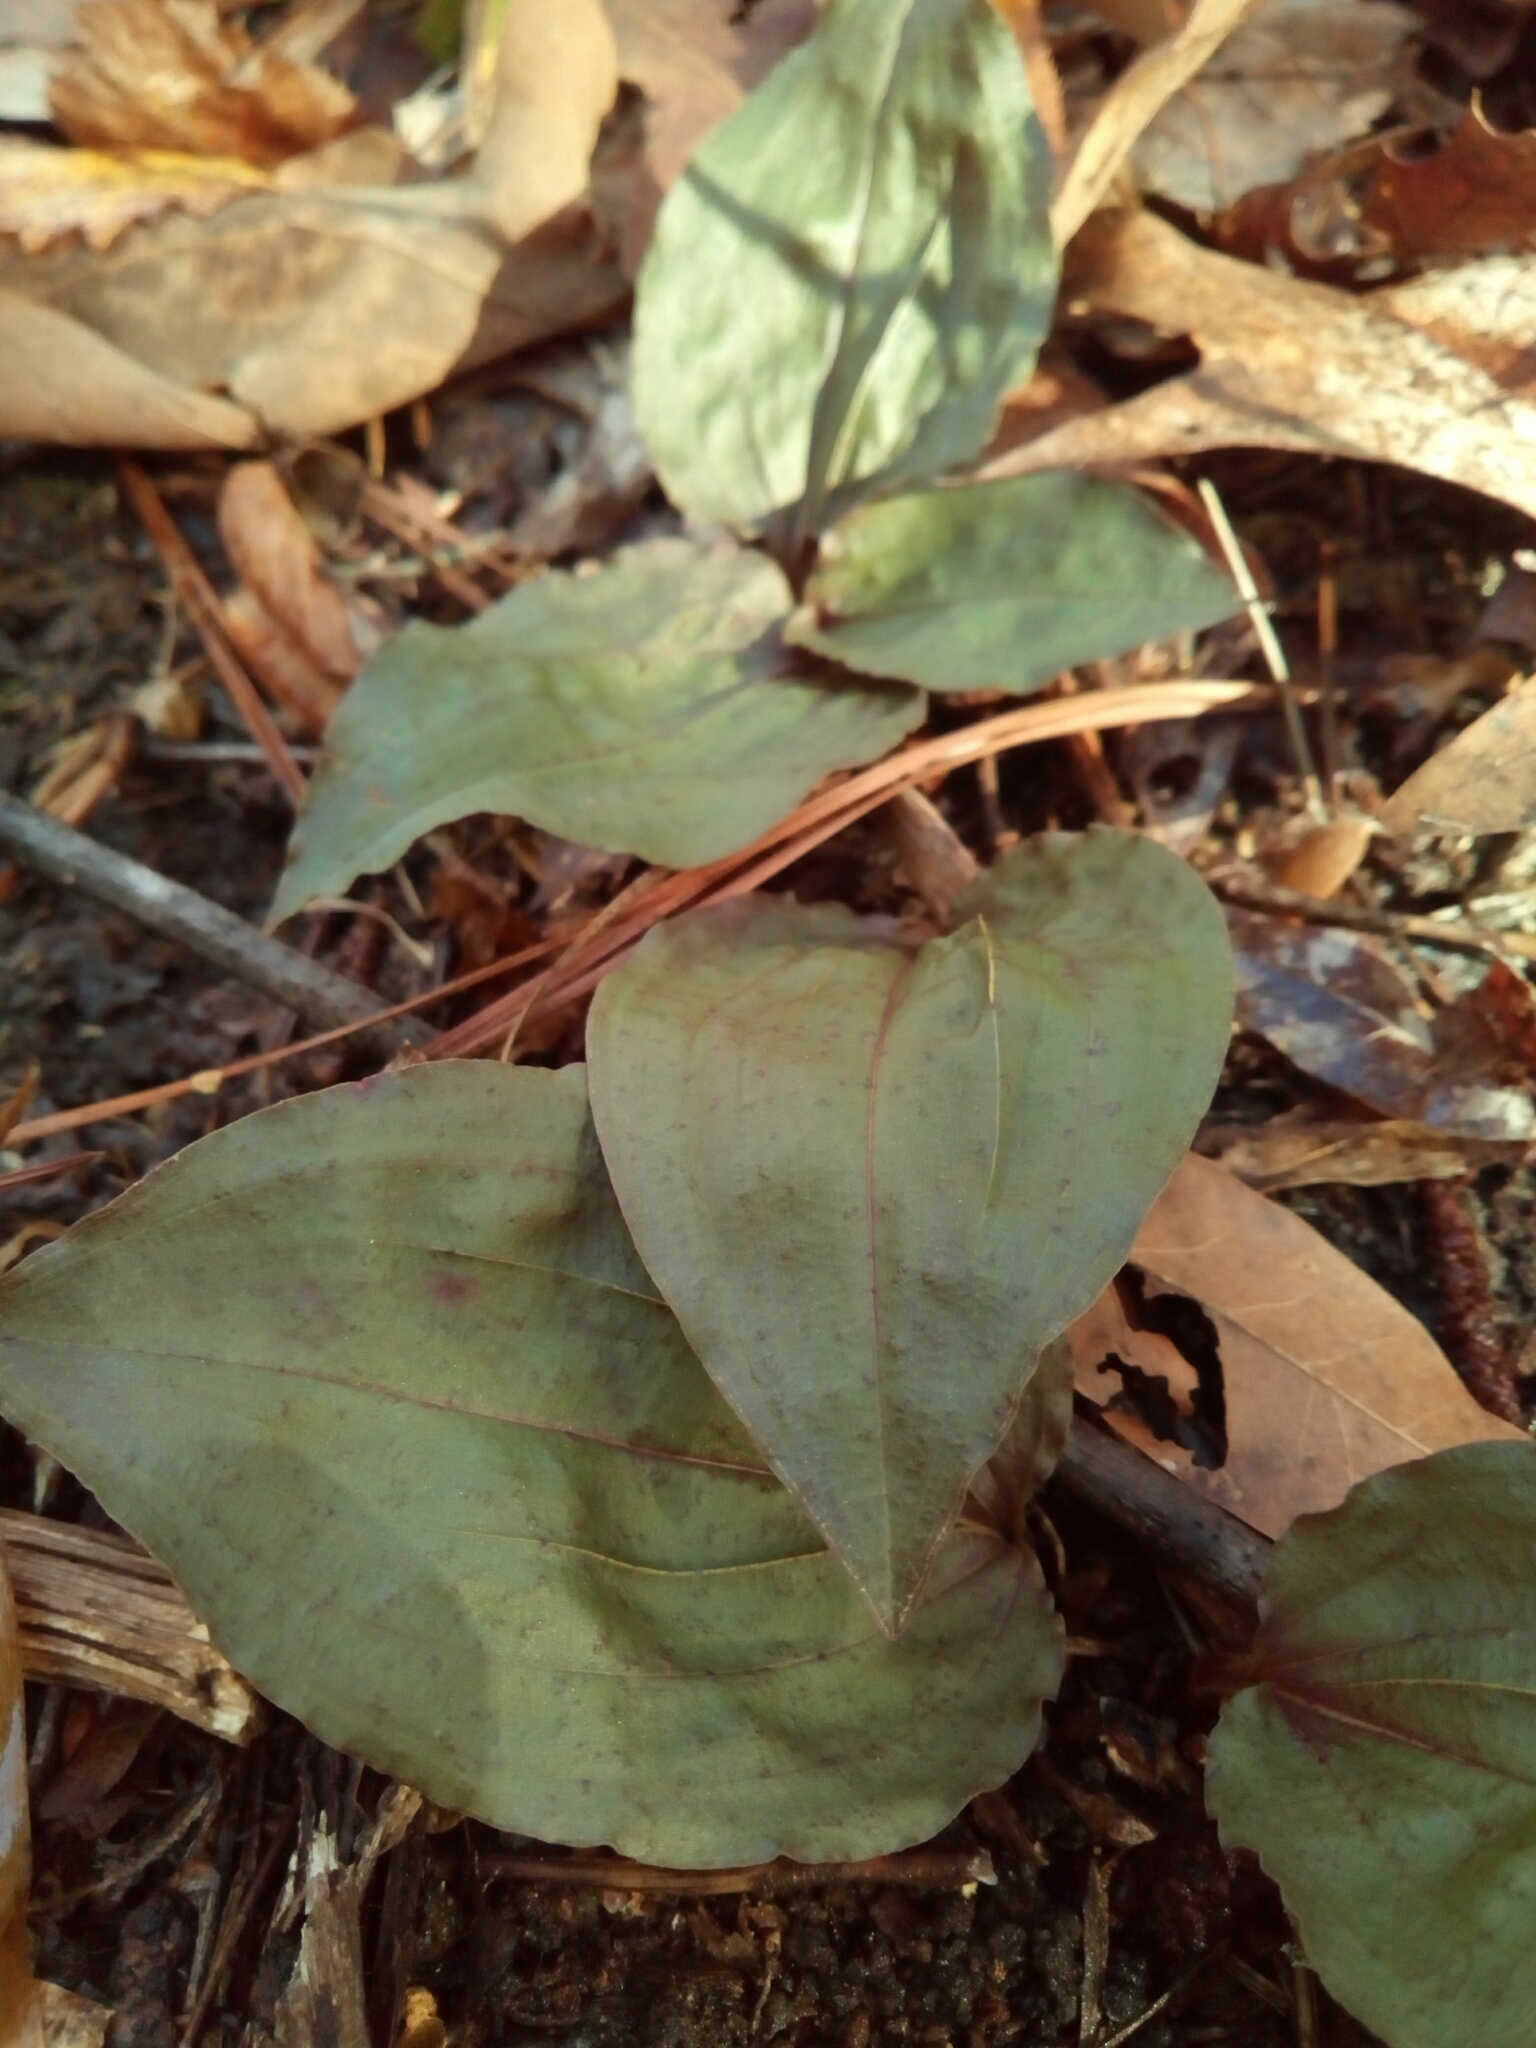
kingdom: Plantae
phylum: Tracheophyta
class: Liliopsida
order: Asparagales
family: Orchidaceae
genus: Tipularia
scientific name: Tipularia discolor
